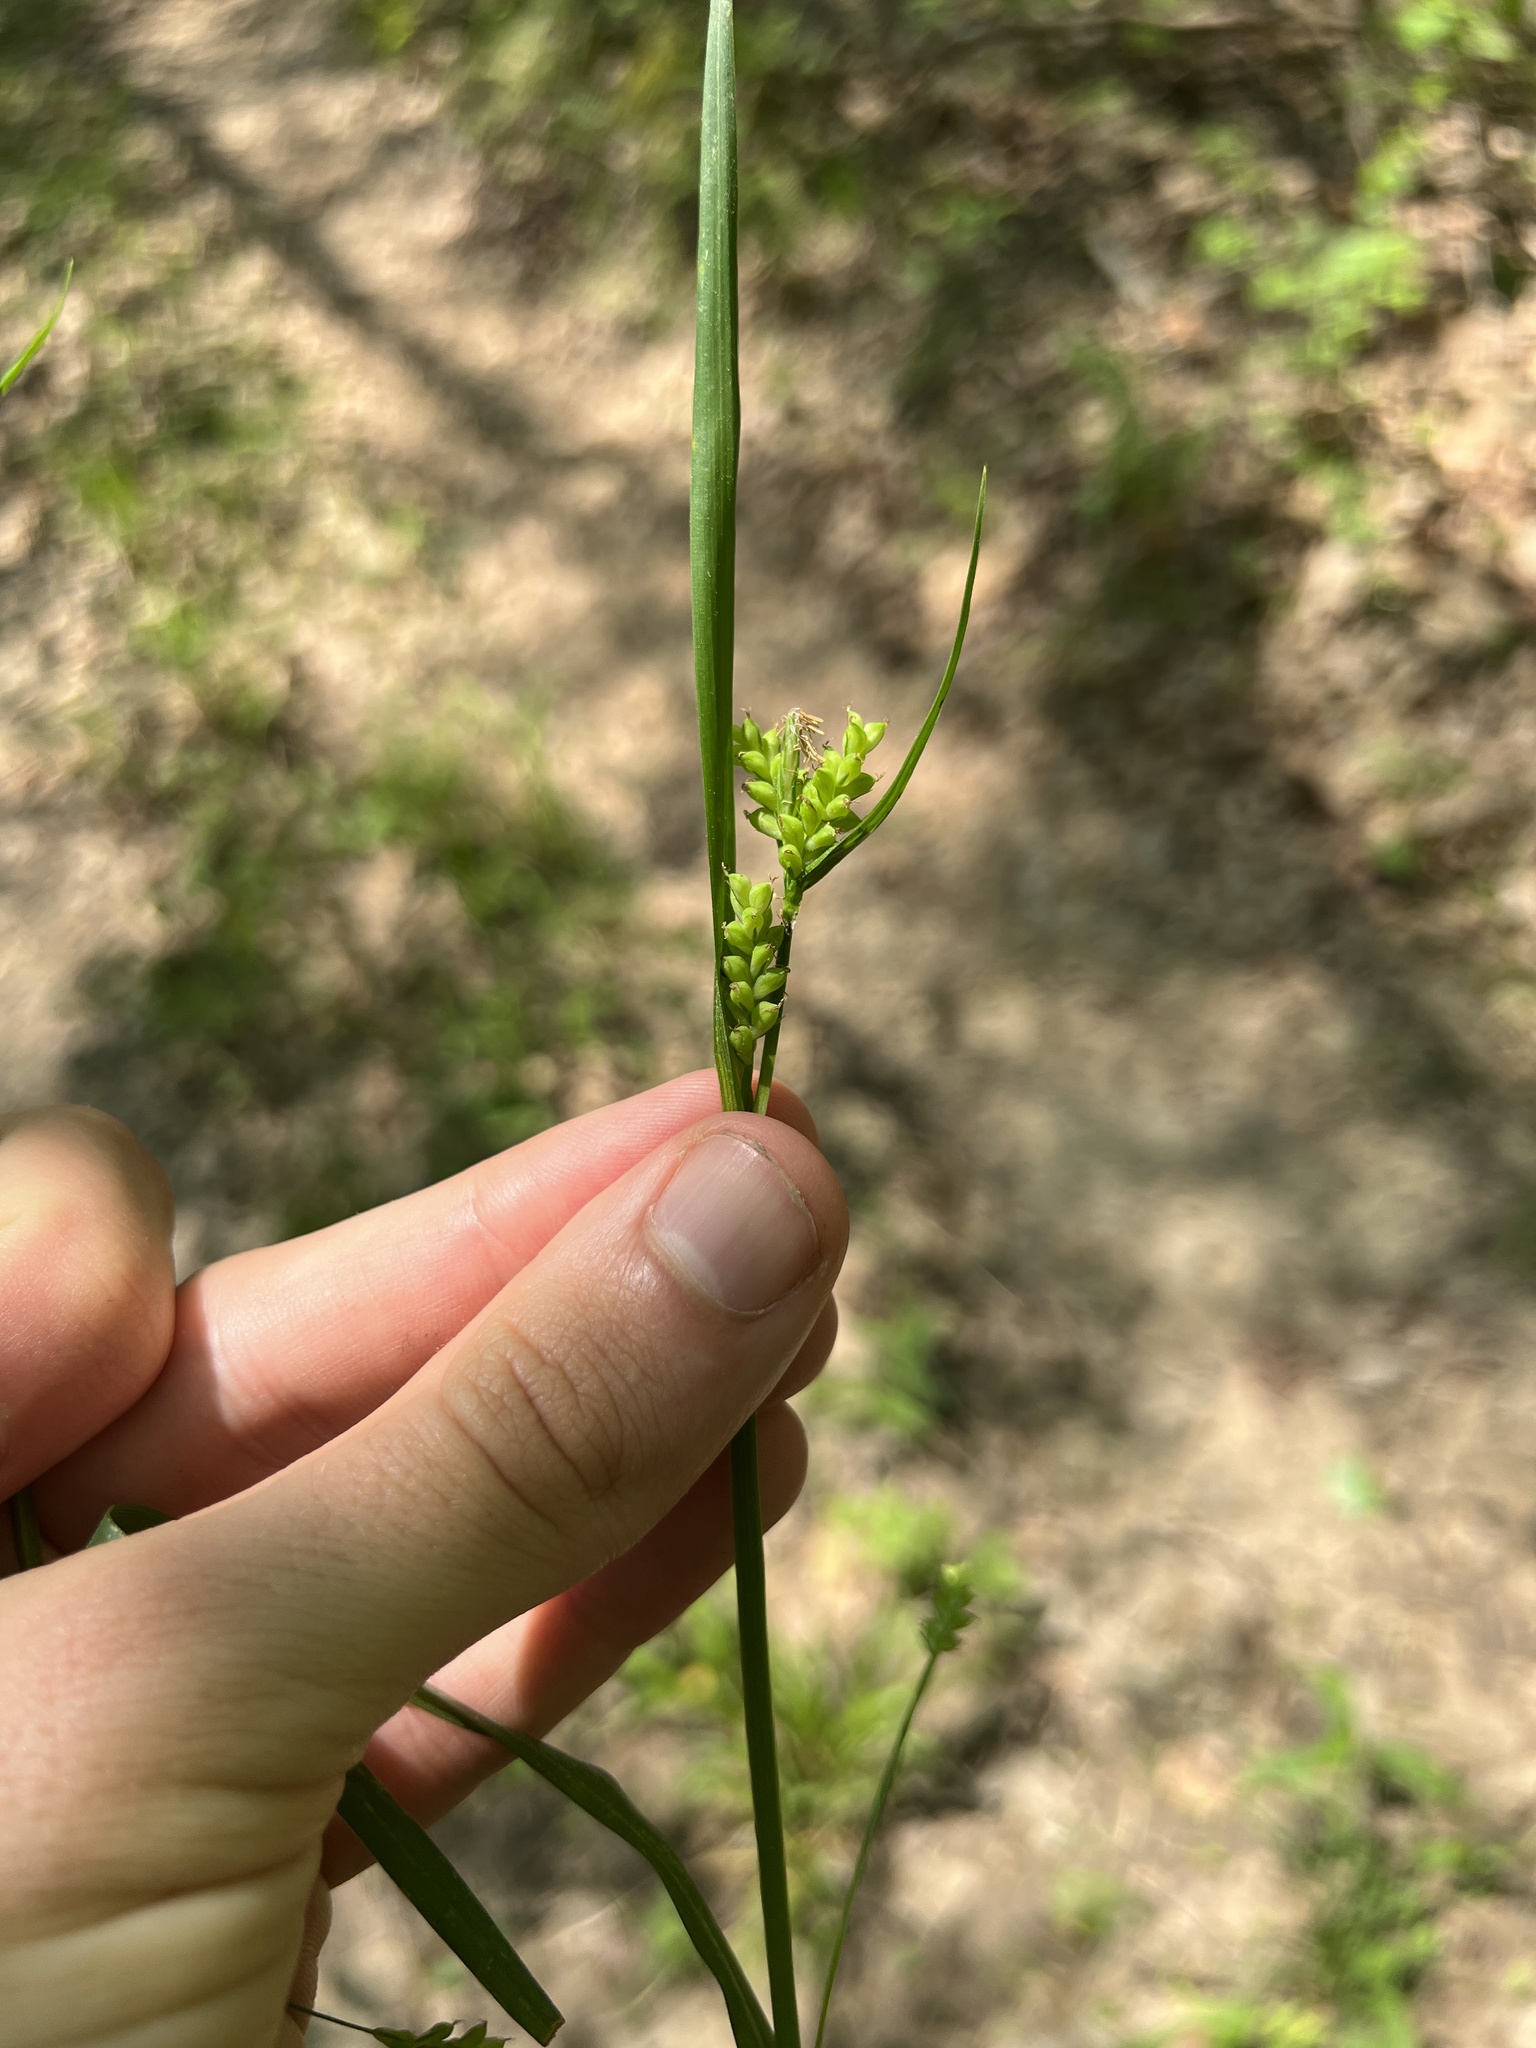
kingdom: Plantae
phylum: Tracheophyta
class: Liliopsida
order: Poales
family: Cyperaceae
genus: Carex
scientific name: Carex blanda
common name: Bland sedge
